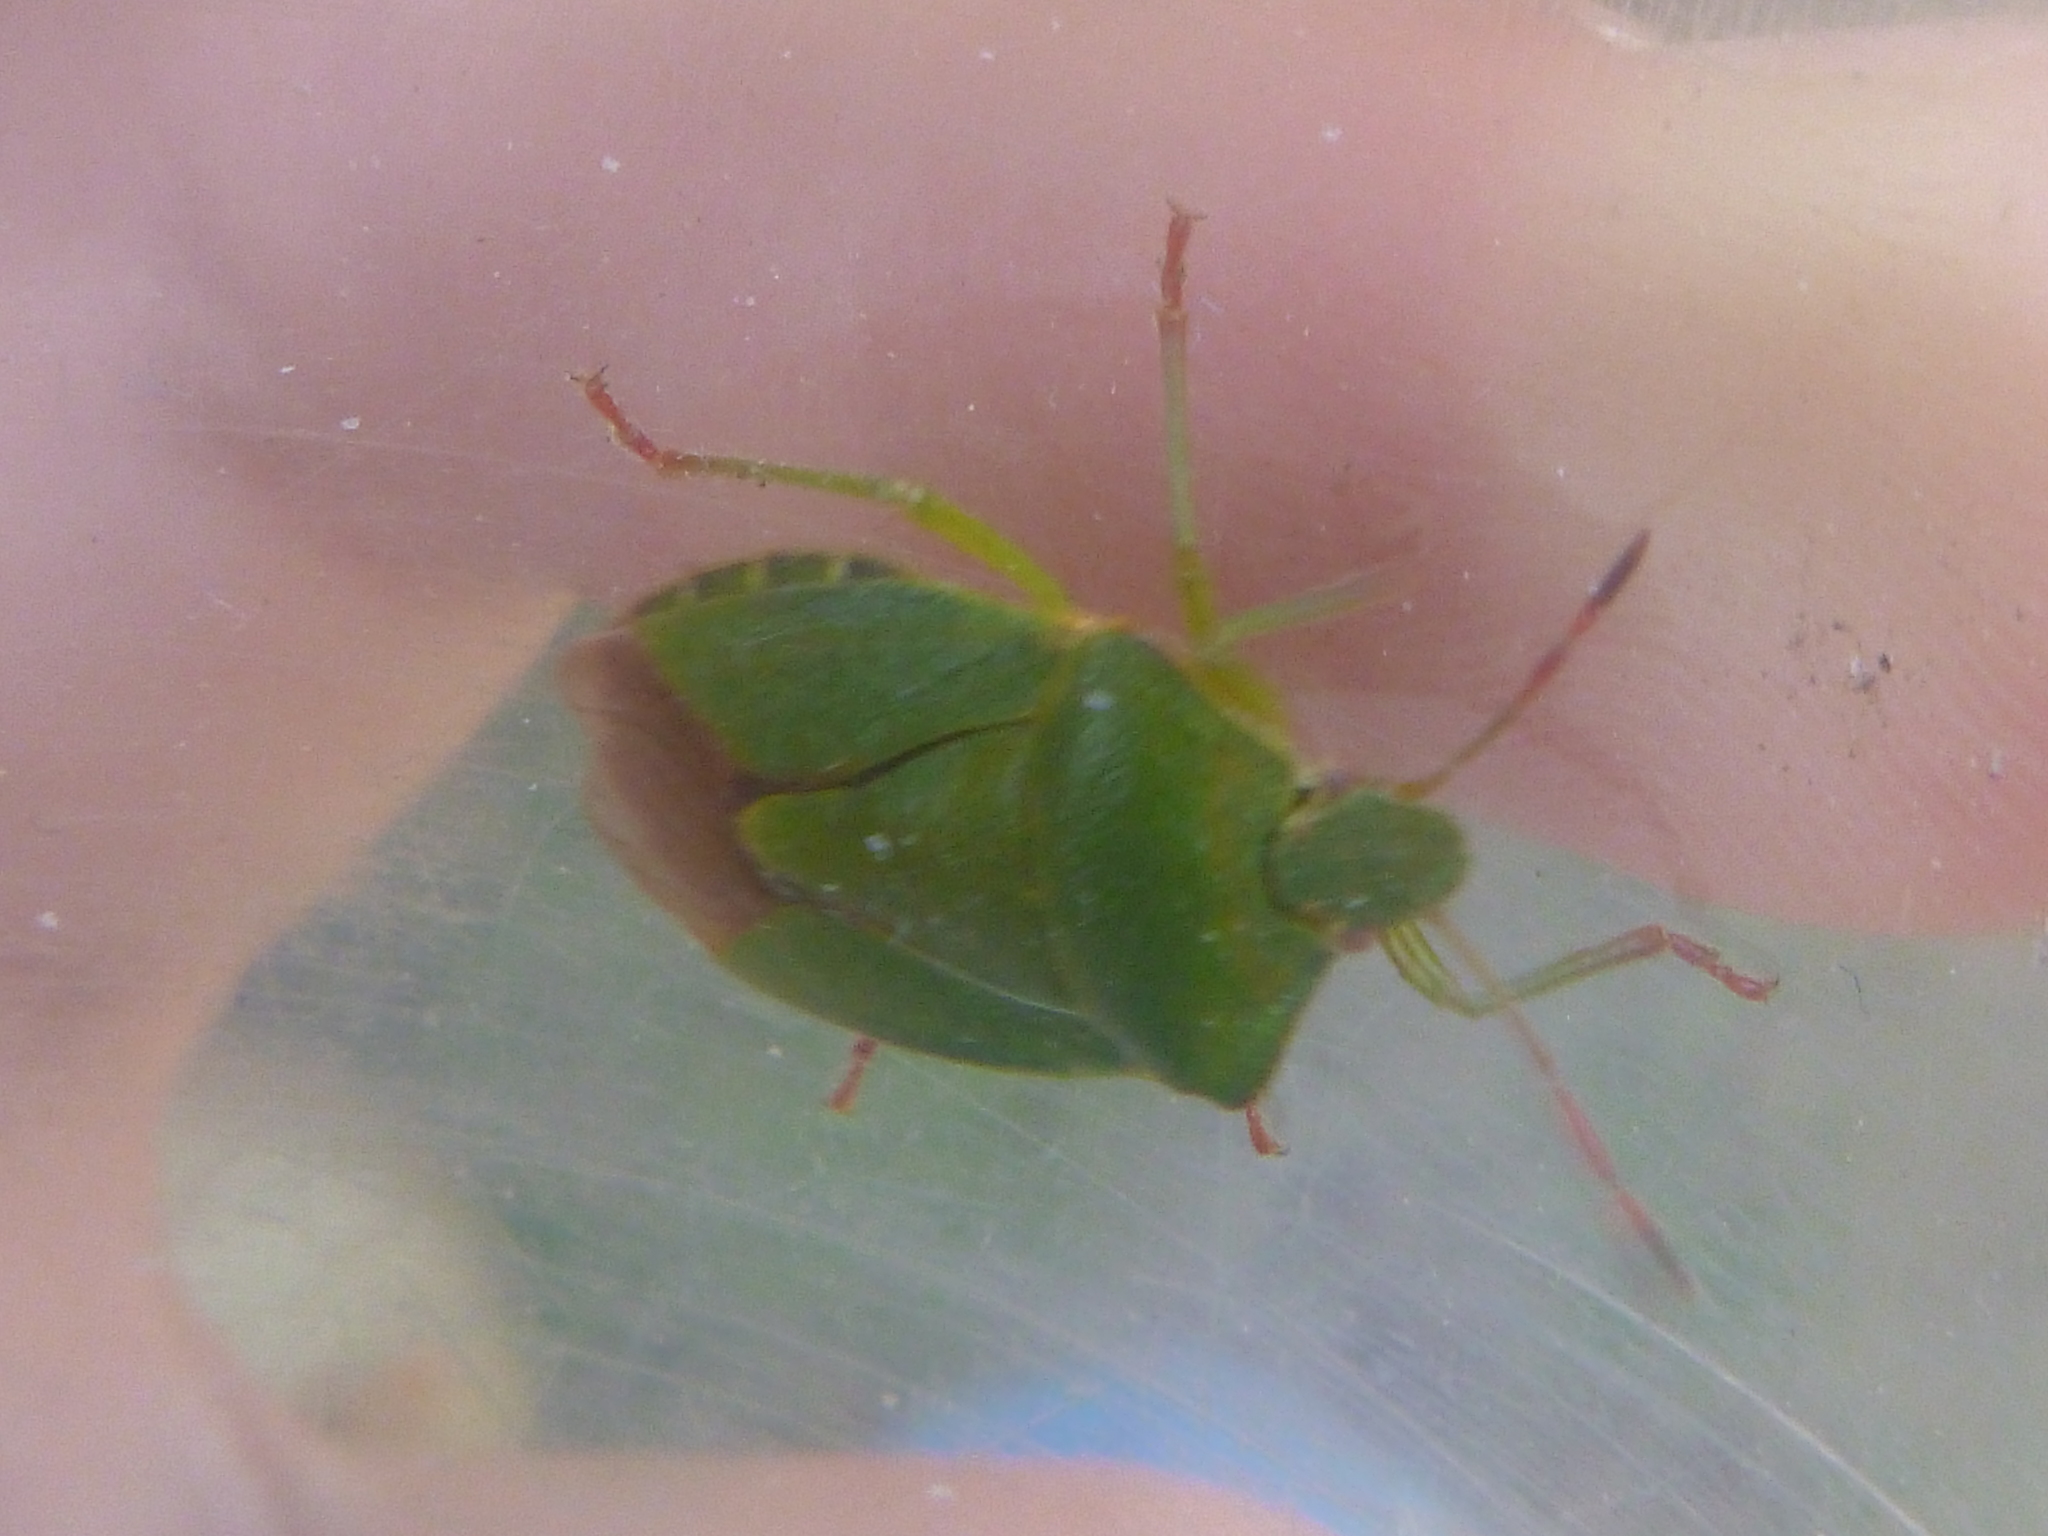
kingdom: Animalia
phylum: Arthropoda
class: Insecta
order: Hemiptera
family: Pentatomidae
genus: Palomena
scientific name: Palomena prasina
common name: Green shieldbug
